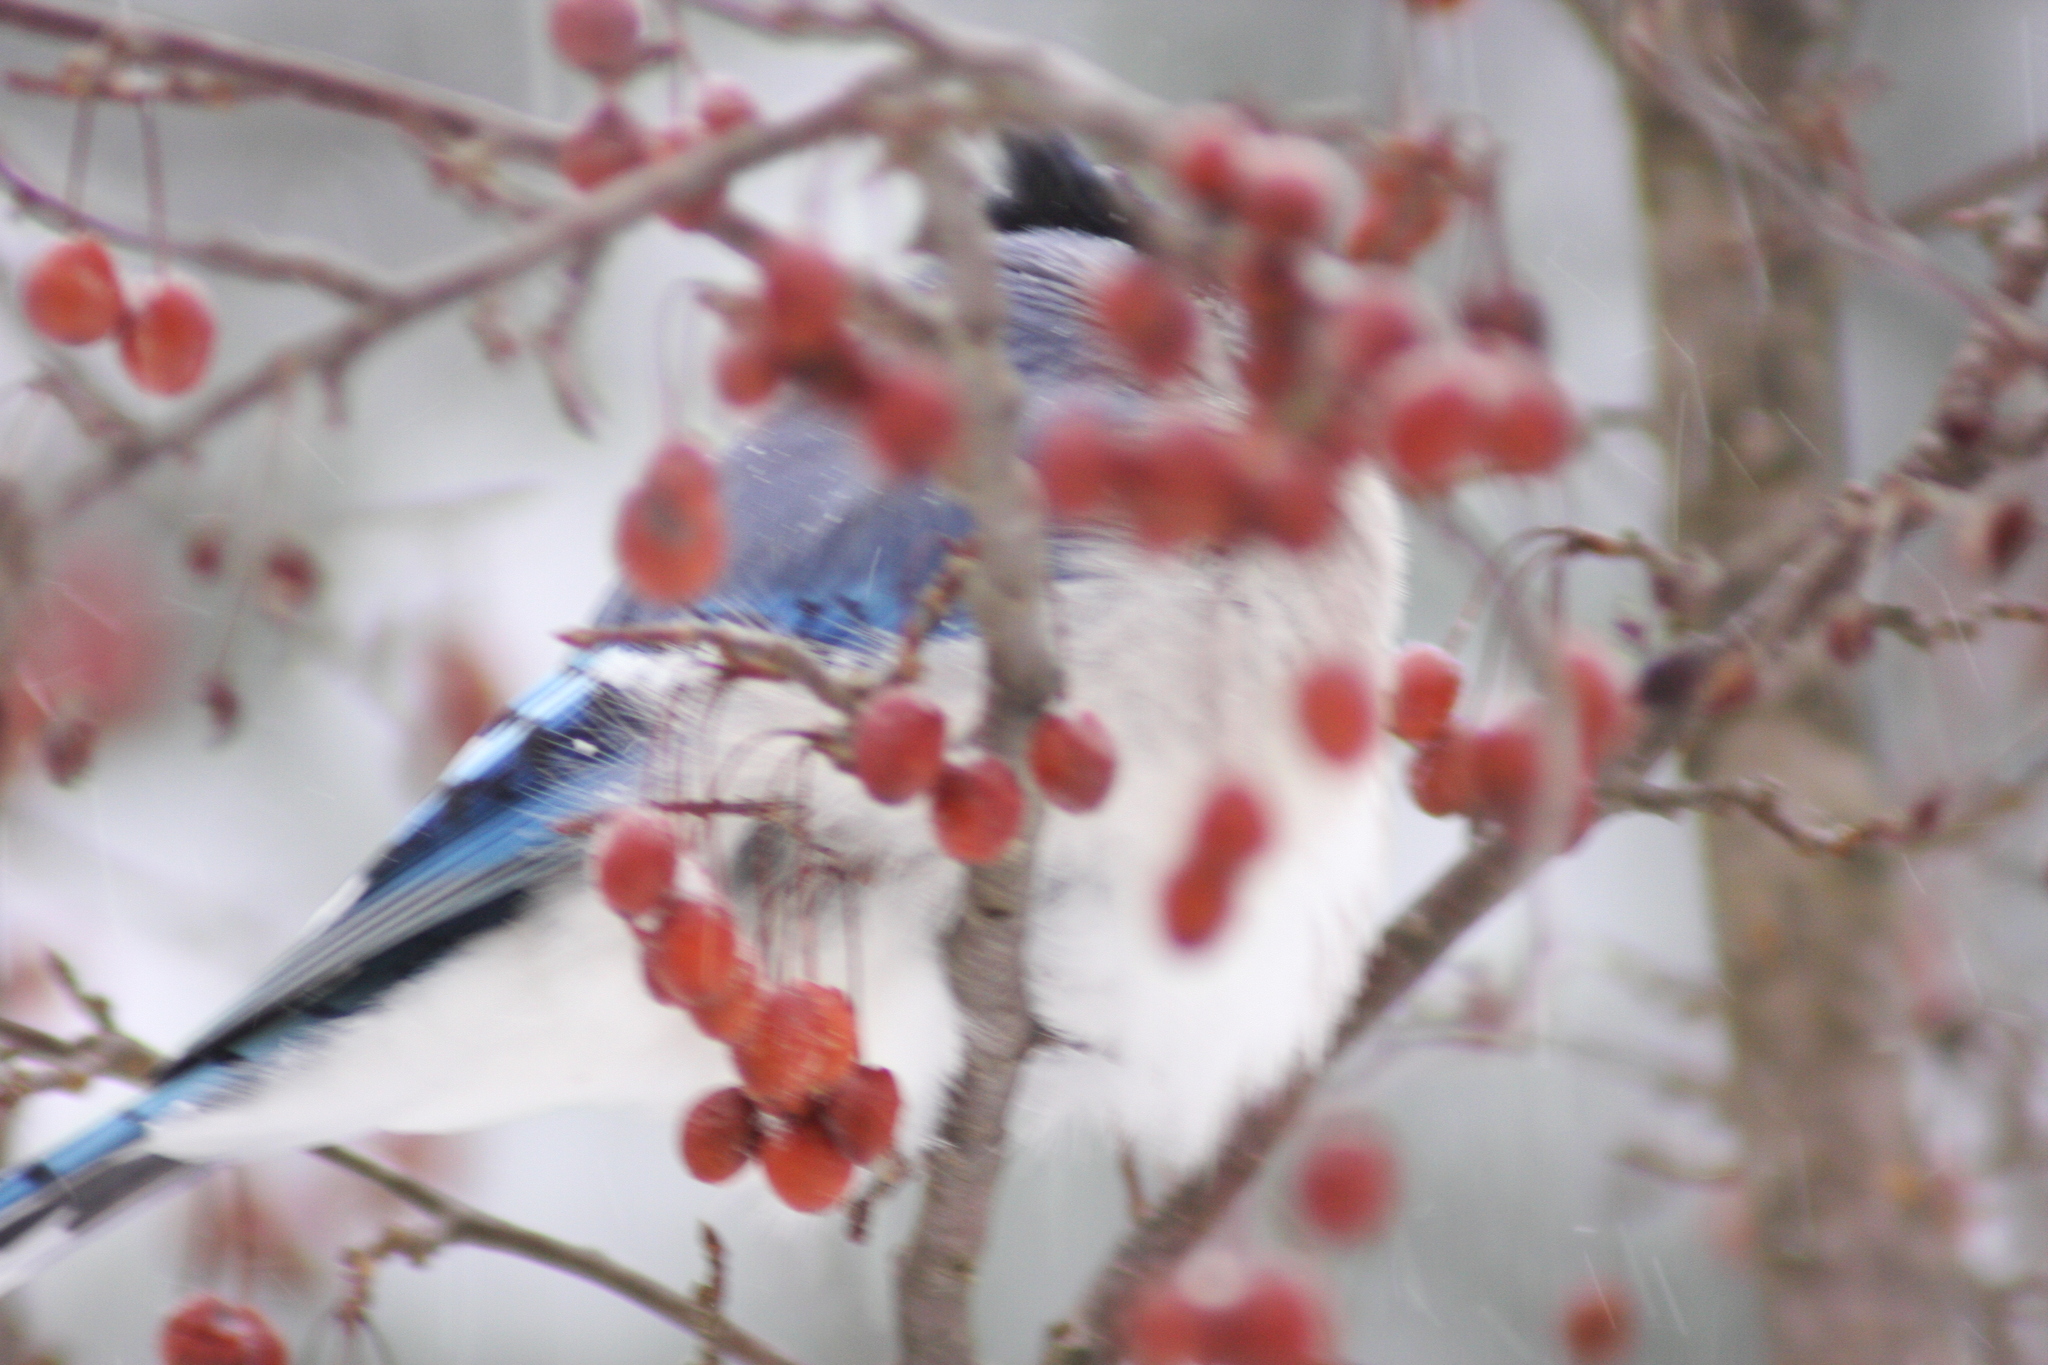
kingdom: Animalia
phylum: Chordata
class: Aves
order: Passeriformes
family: Corvidae
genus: Cyanocitta
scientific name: Cyanocitta cristata
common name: Blue jay
